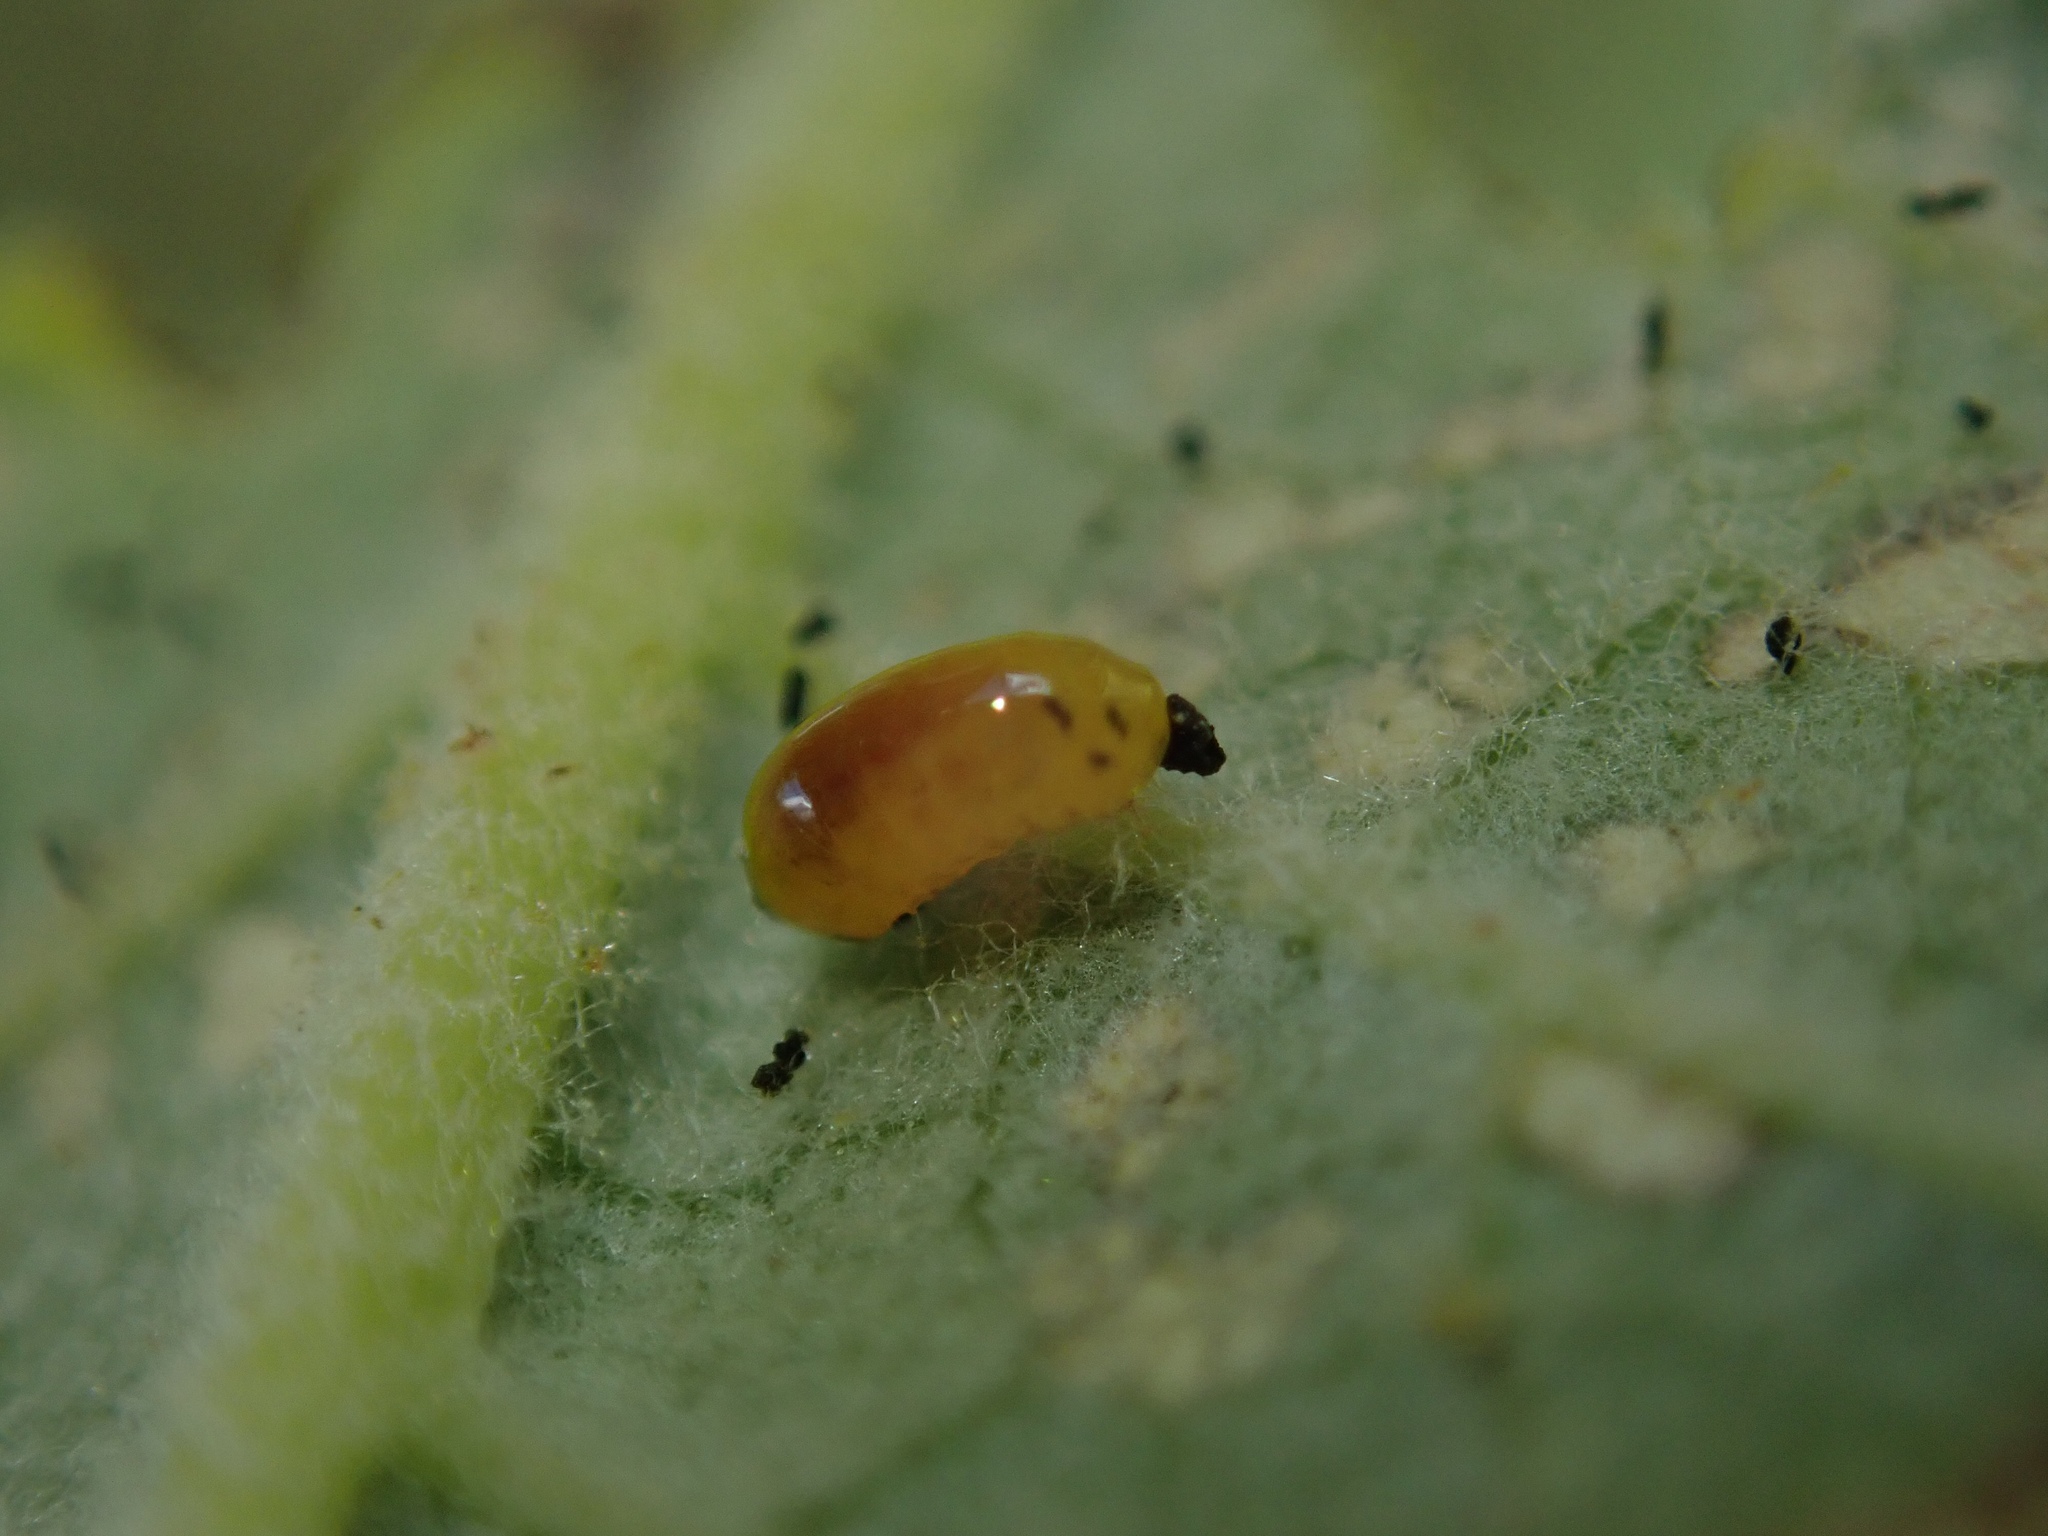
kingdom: Animalia
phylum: Arthropoda
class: Insecta
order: Coleoptera
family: Curculionidae
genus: Cleopus
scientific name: Cleopus japonicus
